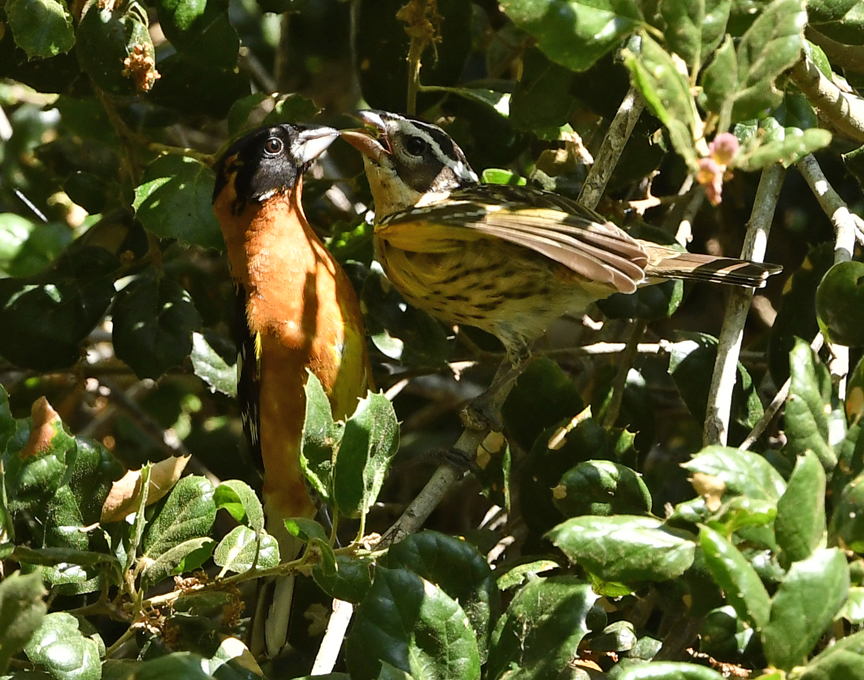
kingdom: Animalia
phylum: Chordata
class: Aves
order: Passeriformes
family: Cardinalidae
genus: Pheucticus
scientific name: Pheucticus melanocephalus
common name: Black-headed grosbeak
